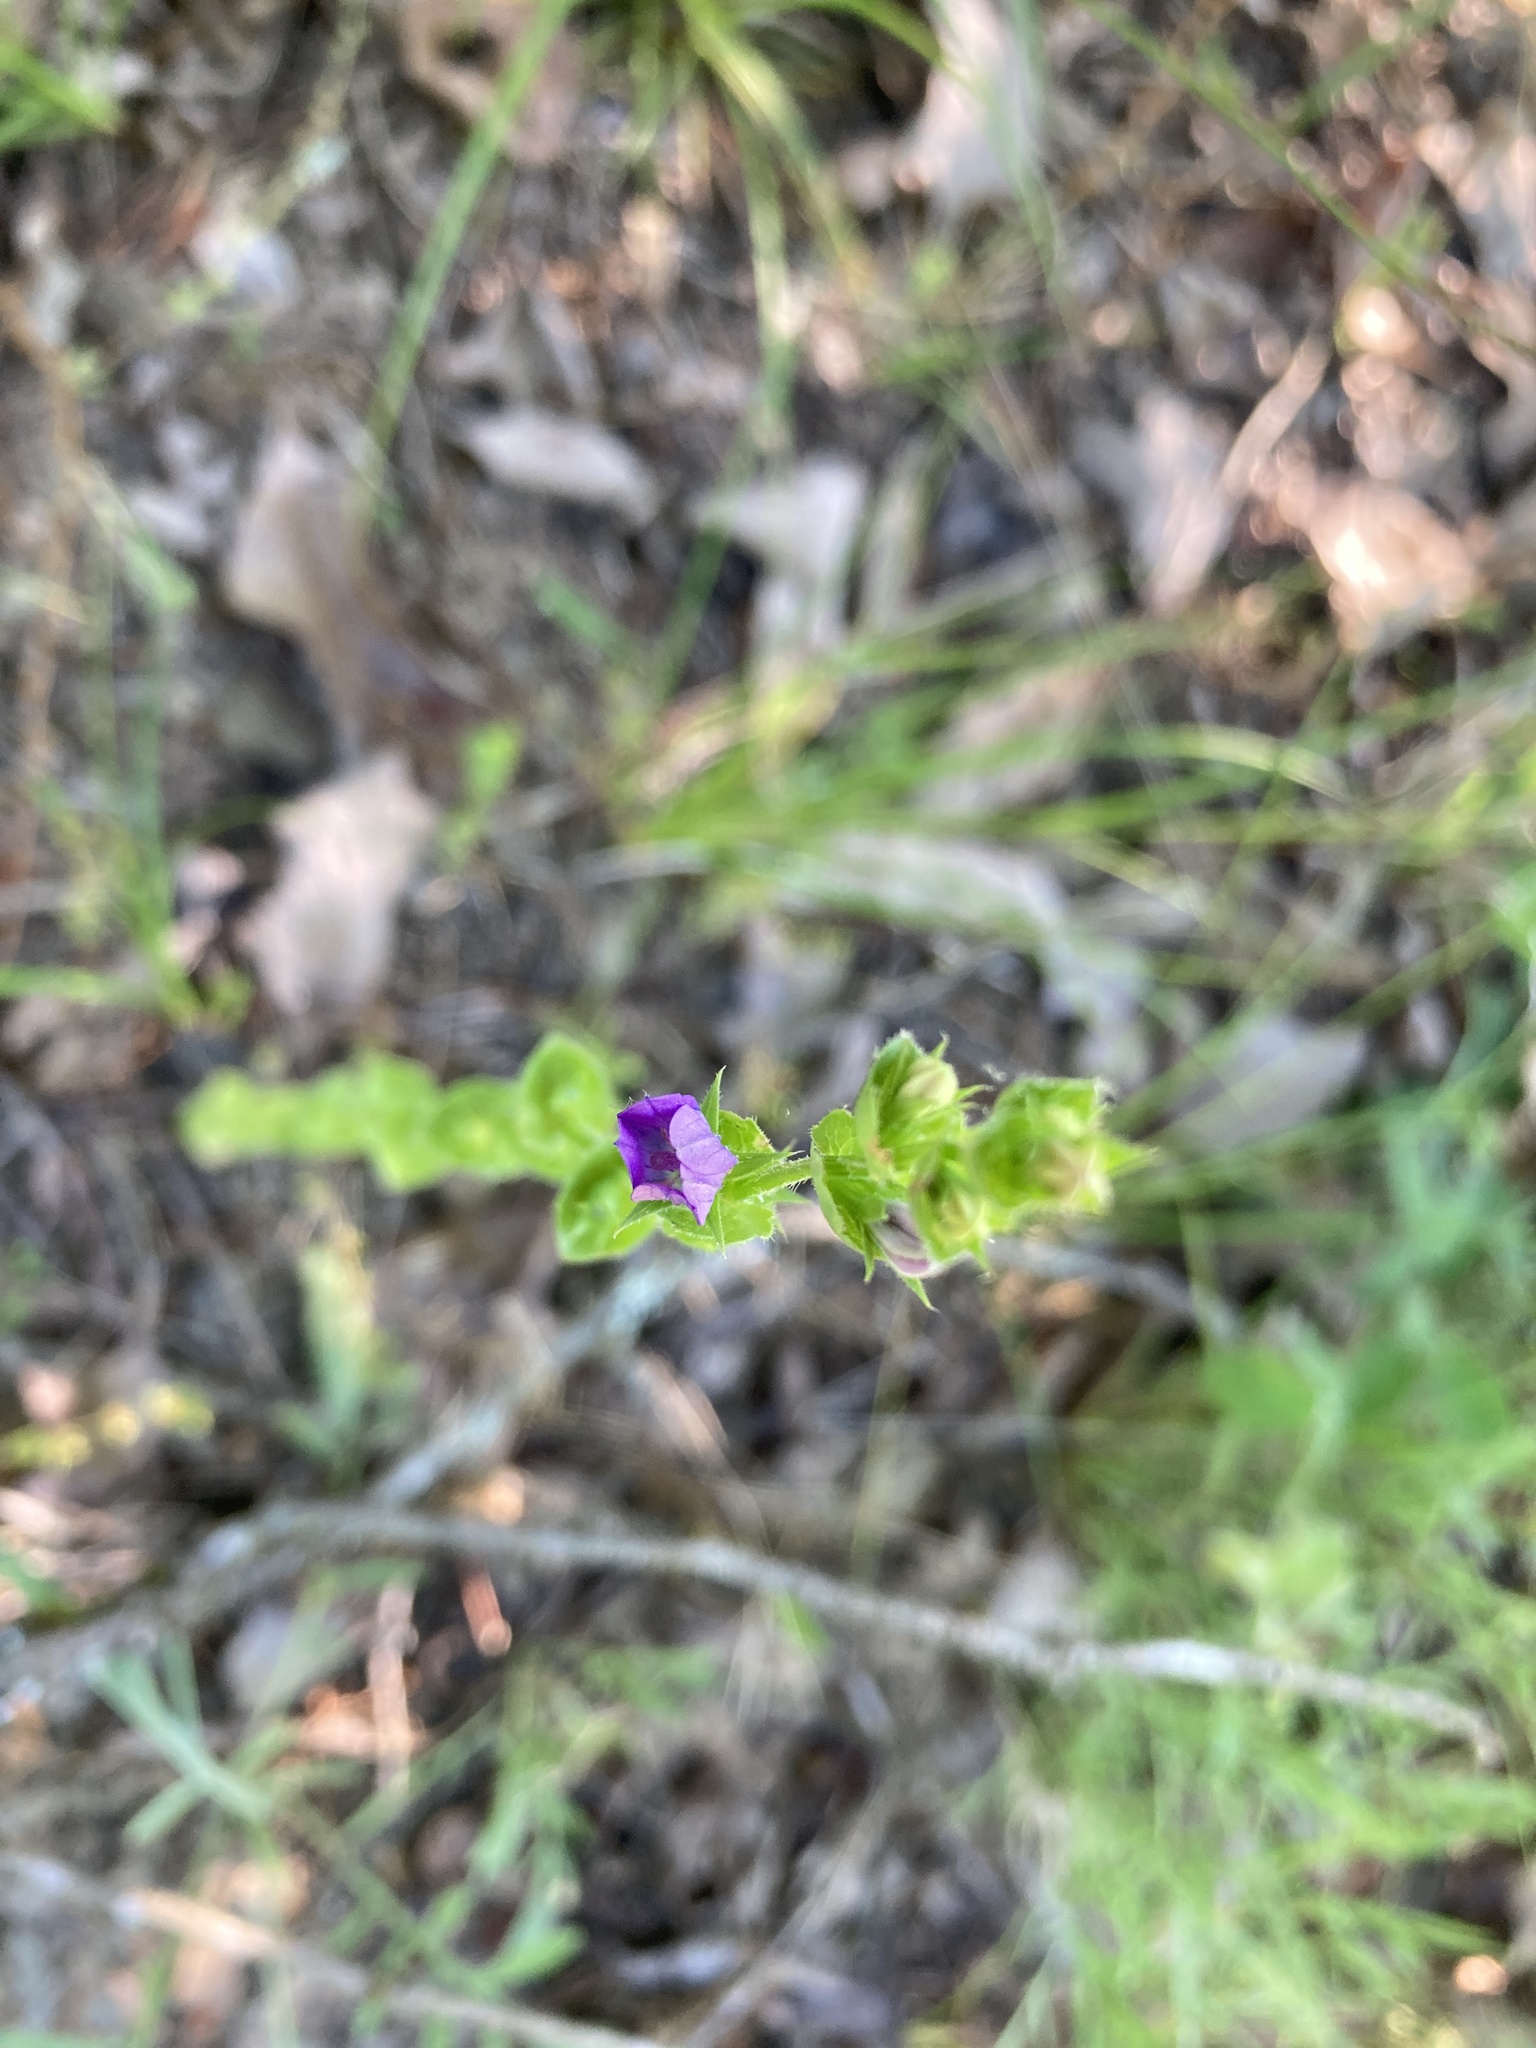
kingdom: Plantae
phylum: Tracheophyta
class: Magnoliopsida
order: Asterales
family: Campanulaceae
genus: Triodanis
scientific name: Triodanis perfoliata
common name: Clasping venus' looking-glass
